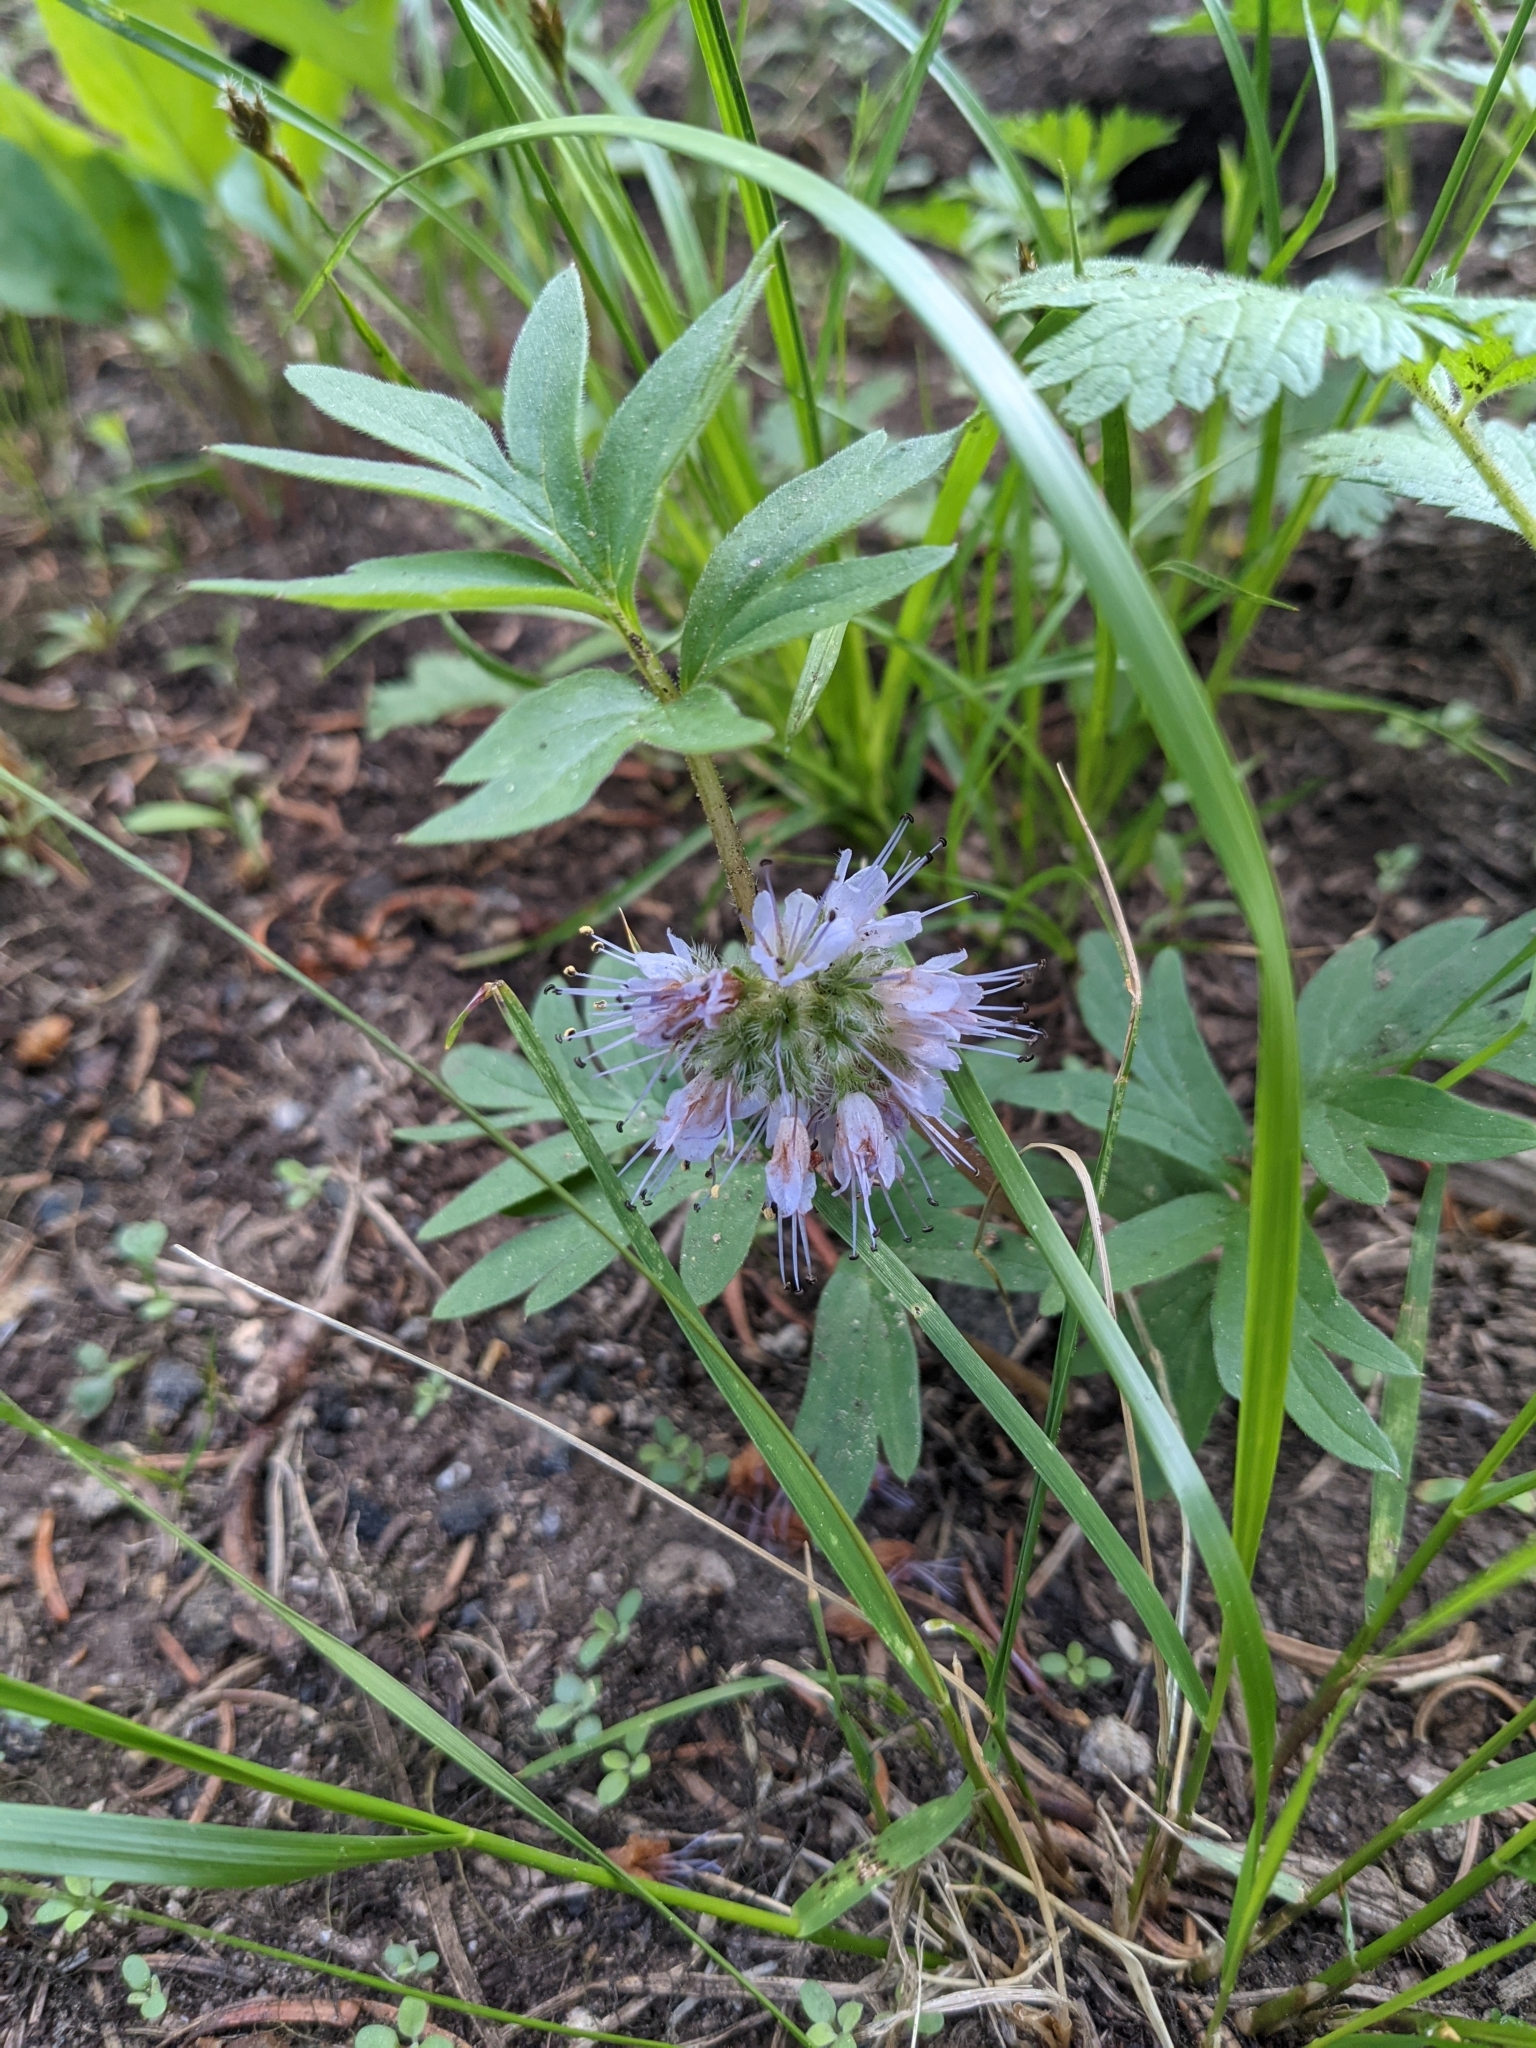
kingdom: Plantae
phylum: Tracheophyta
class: Magnoliopsida
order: Boraginales
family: Hydrophyllaceae
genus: Hydrophyllum
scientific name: Hydrophyllum capitatum
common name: Woollen-breeches
